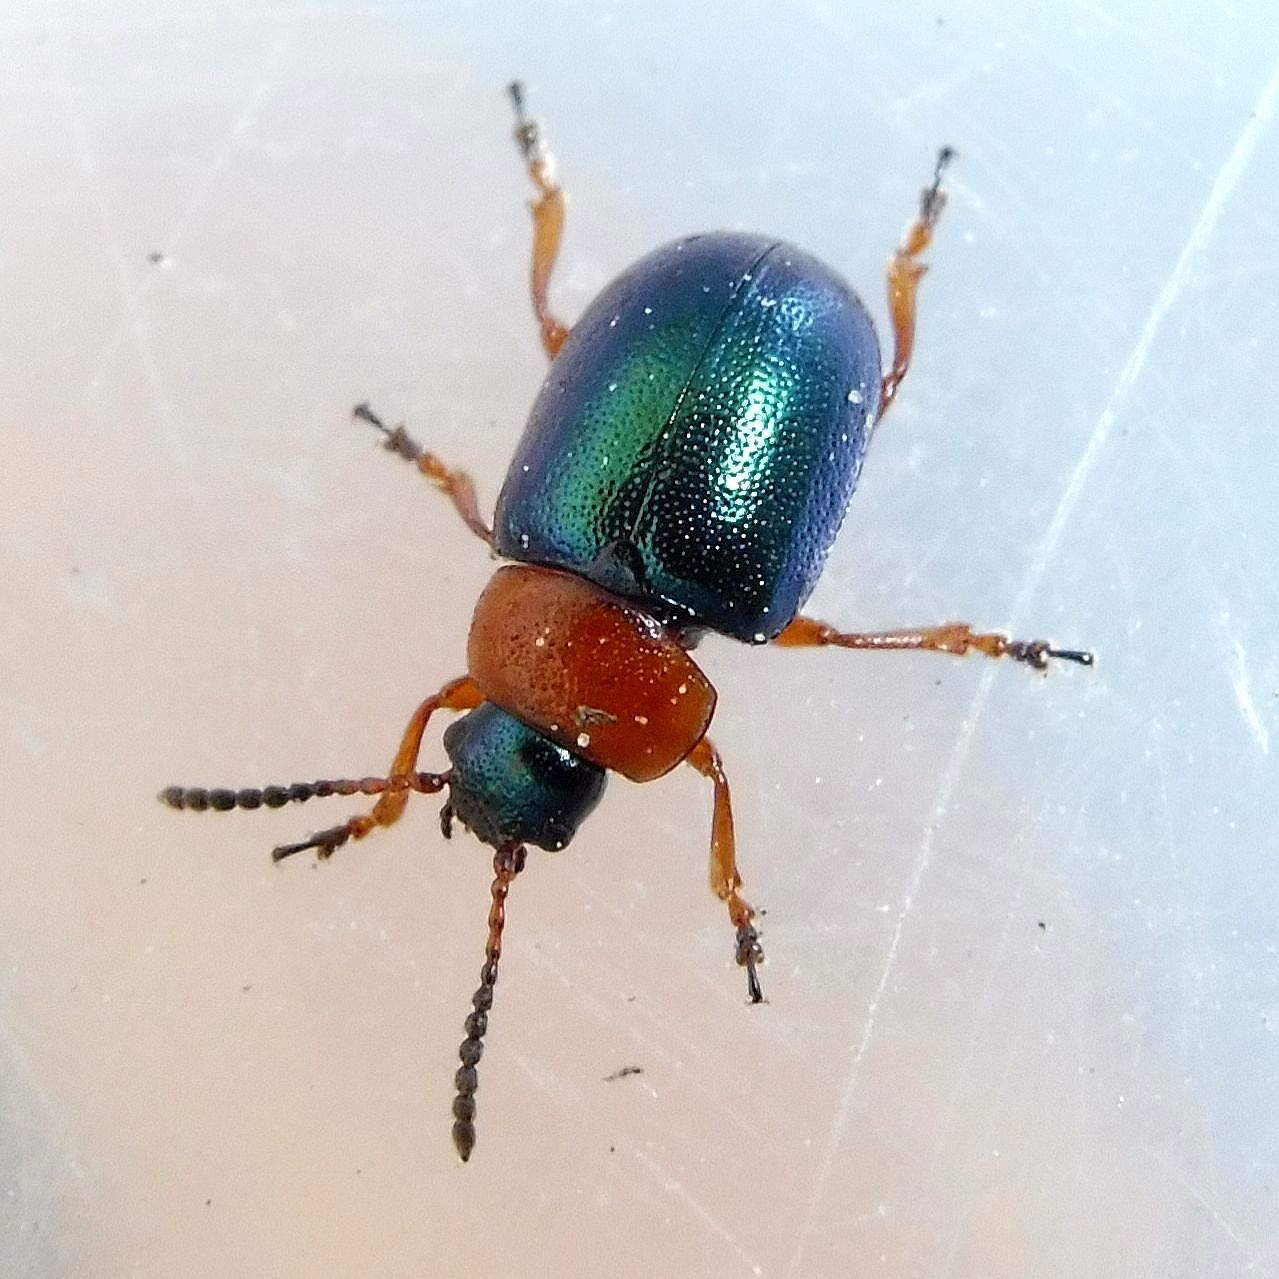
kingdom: Animalia
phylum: Arthropoda
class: Insecta
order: Coleoptera
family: Chrysomelidae
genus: Gastrophysa
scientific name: Gastrophysa polygoni
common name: Knotweed leaf beetle
